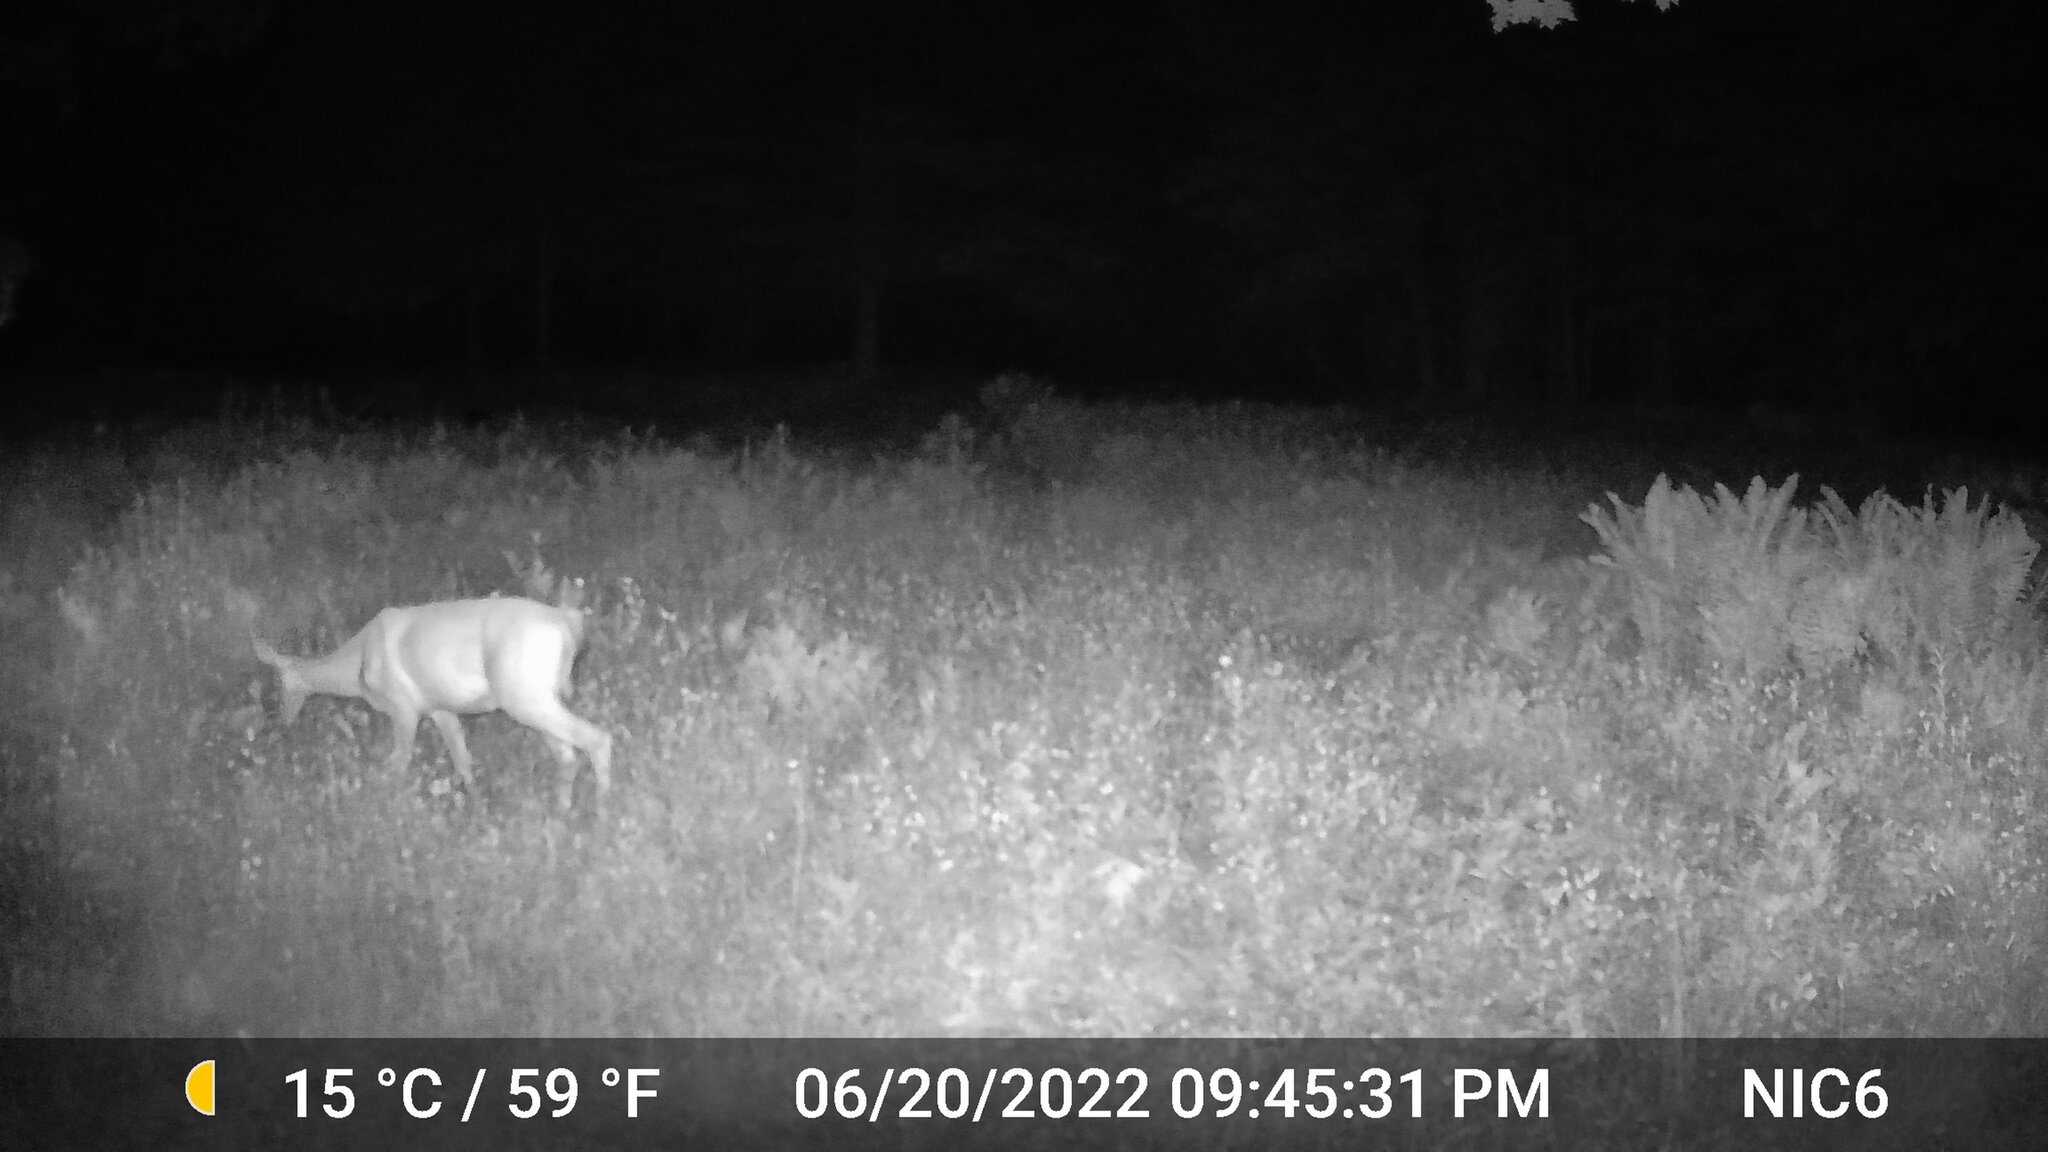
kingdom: Animalia
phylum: Chordata
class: Mammalia
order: Artiodactyla
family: Cervidae
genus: Odocoileus
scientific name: Odocoileus virginianus
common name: White-tailed deer
